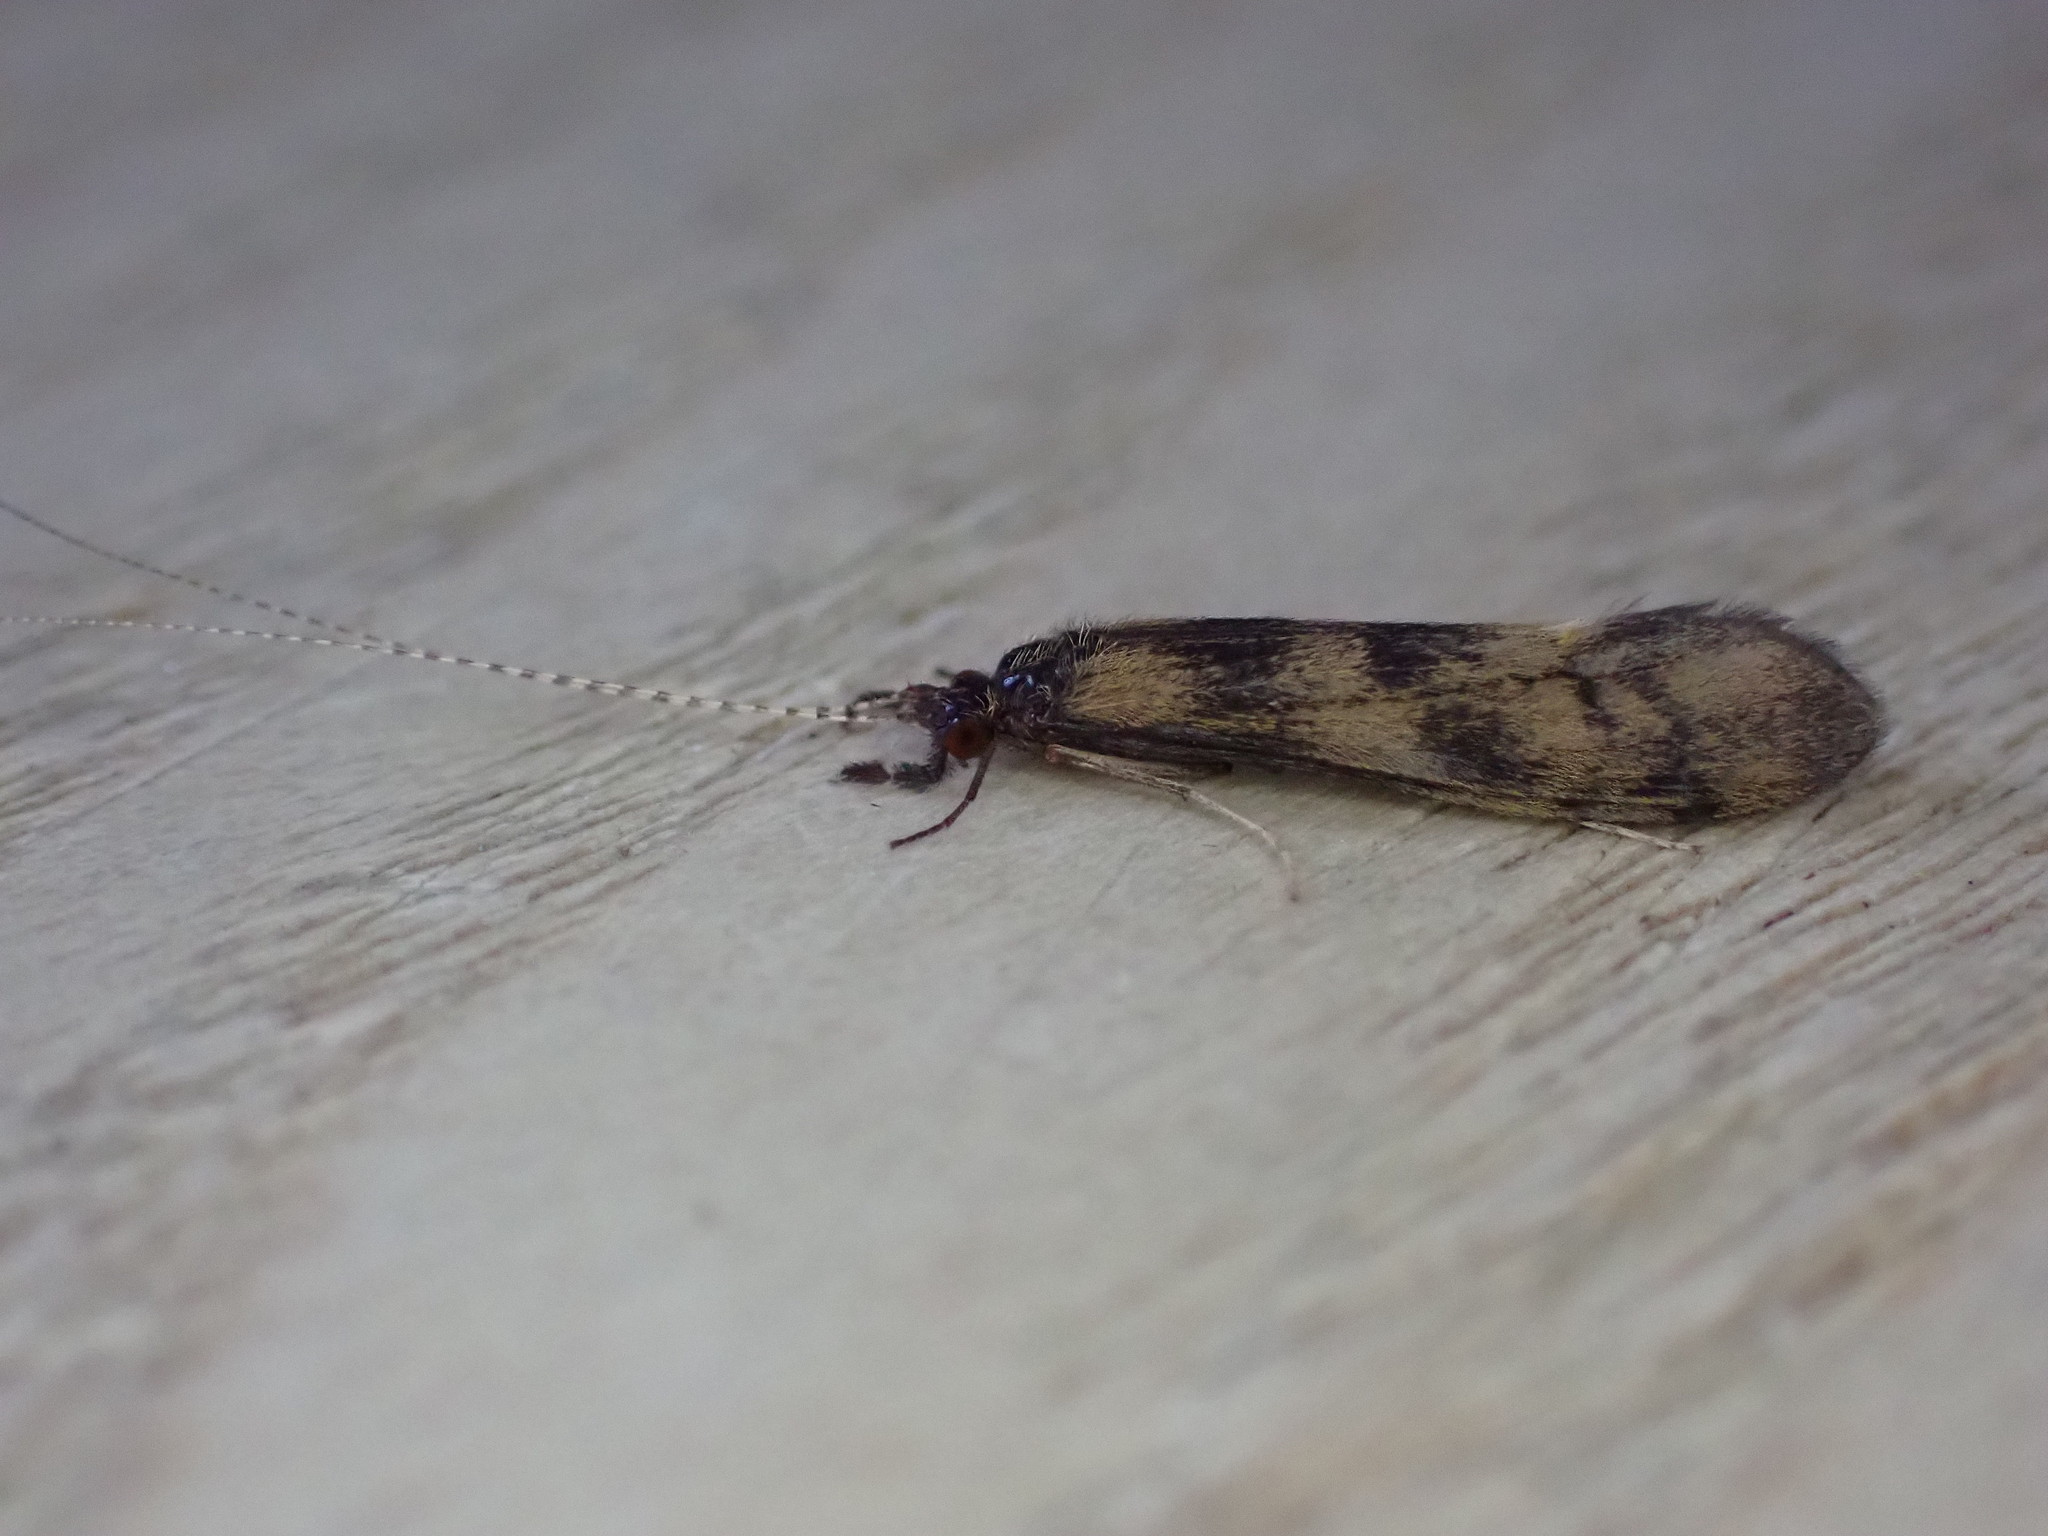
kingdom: Animalia
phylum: Arthropoda
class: Insecta
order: Trichoptera
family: Leptoceridae
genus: Mystacides
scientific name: Mystacides longicornis
